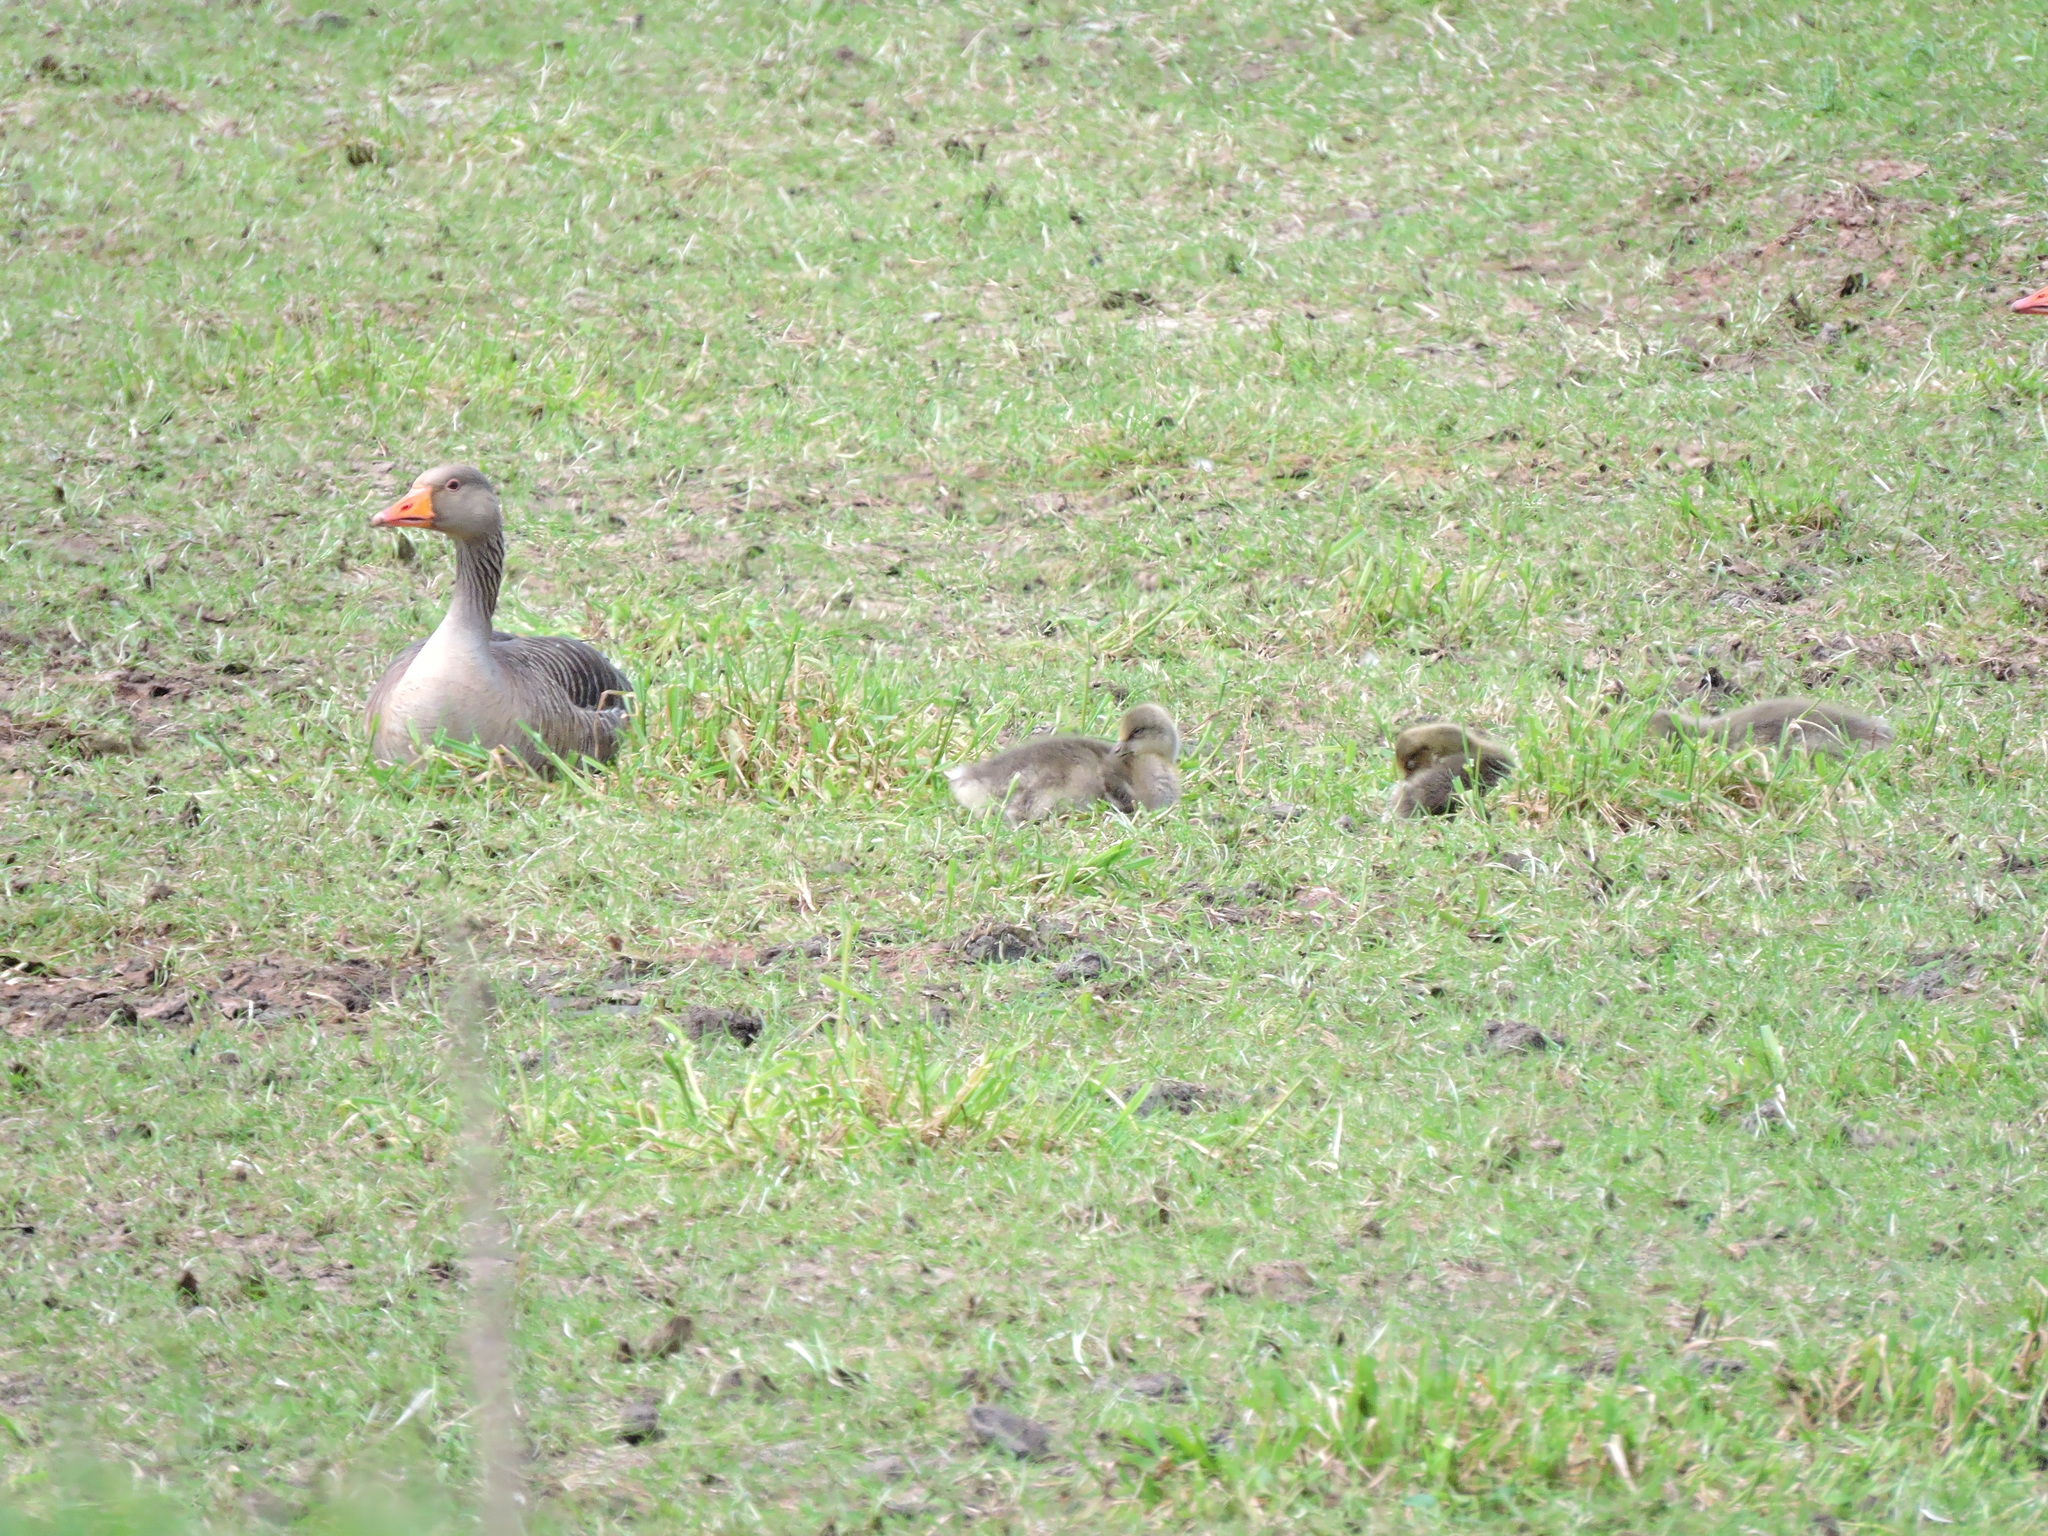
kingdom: Animalia
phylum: Chordata
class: Aves
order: Anseriformes
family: Anatidae
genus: Anser
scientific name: Anser anser
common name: Greylag goose
